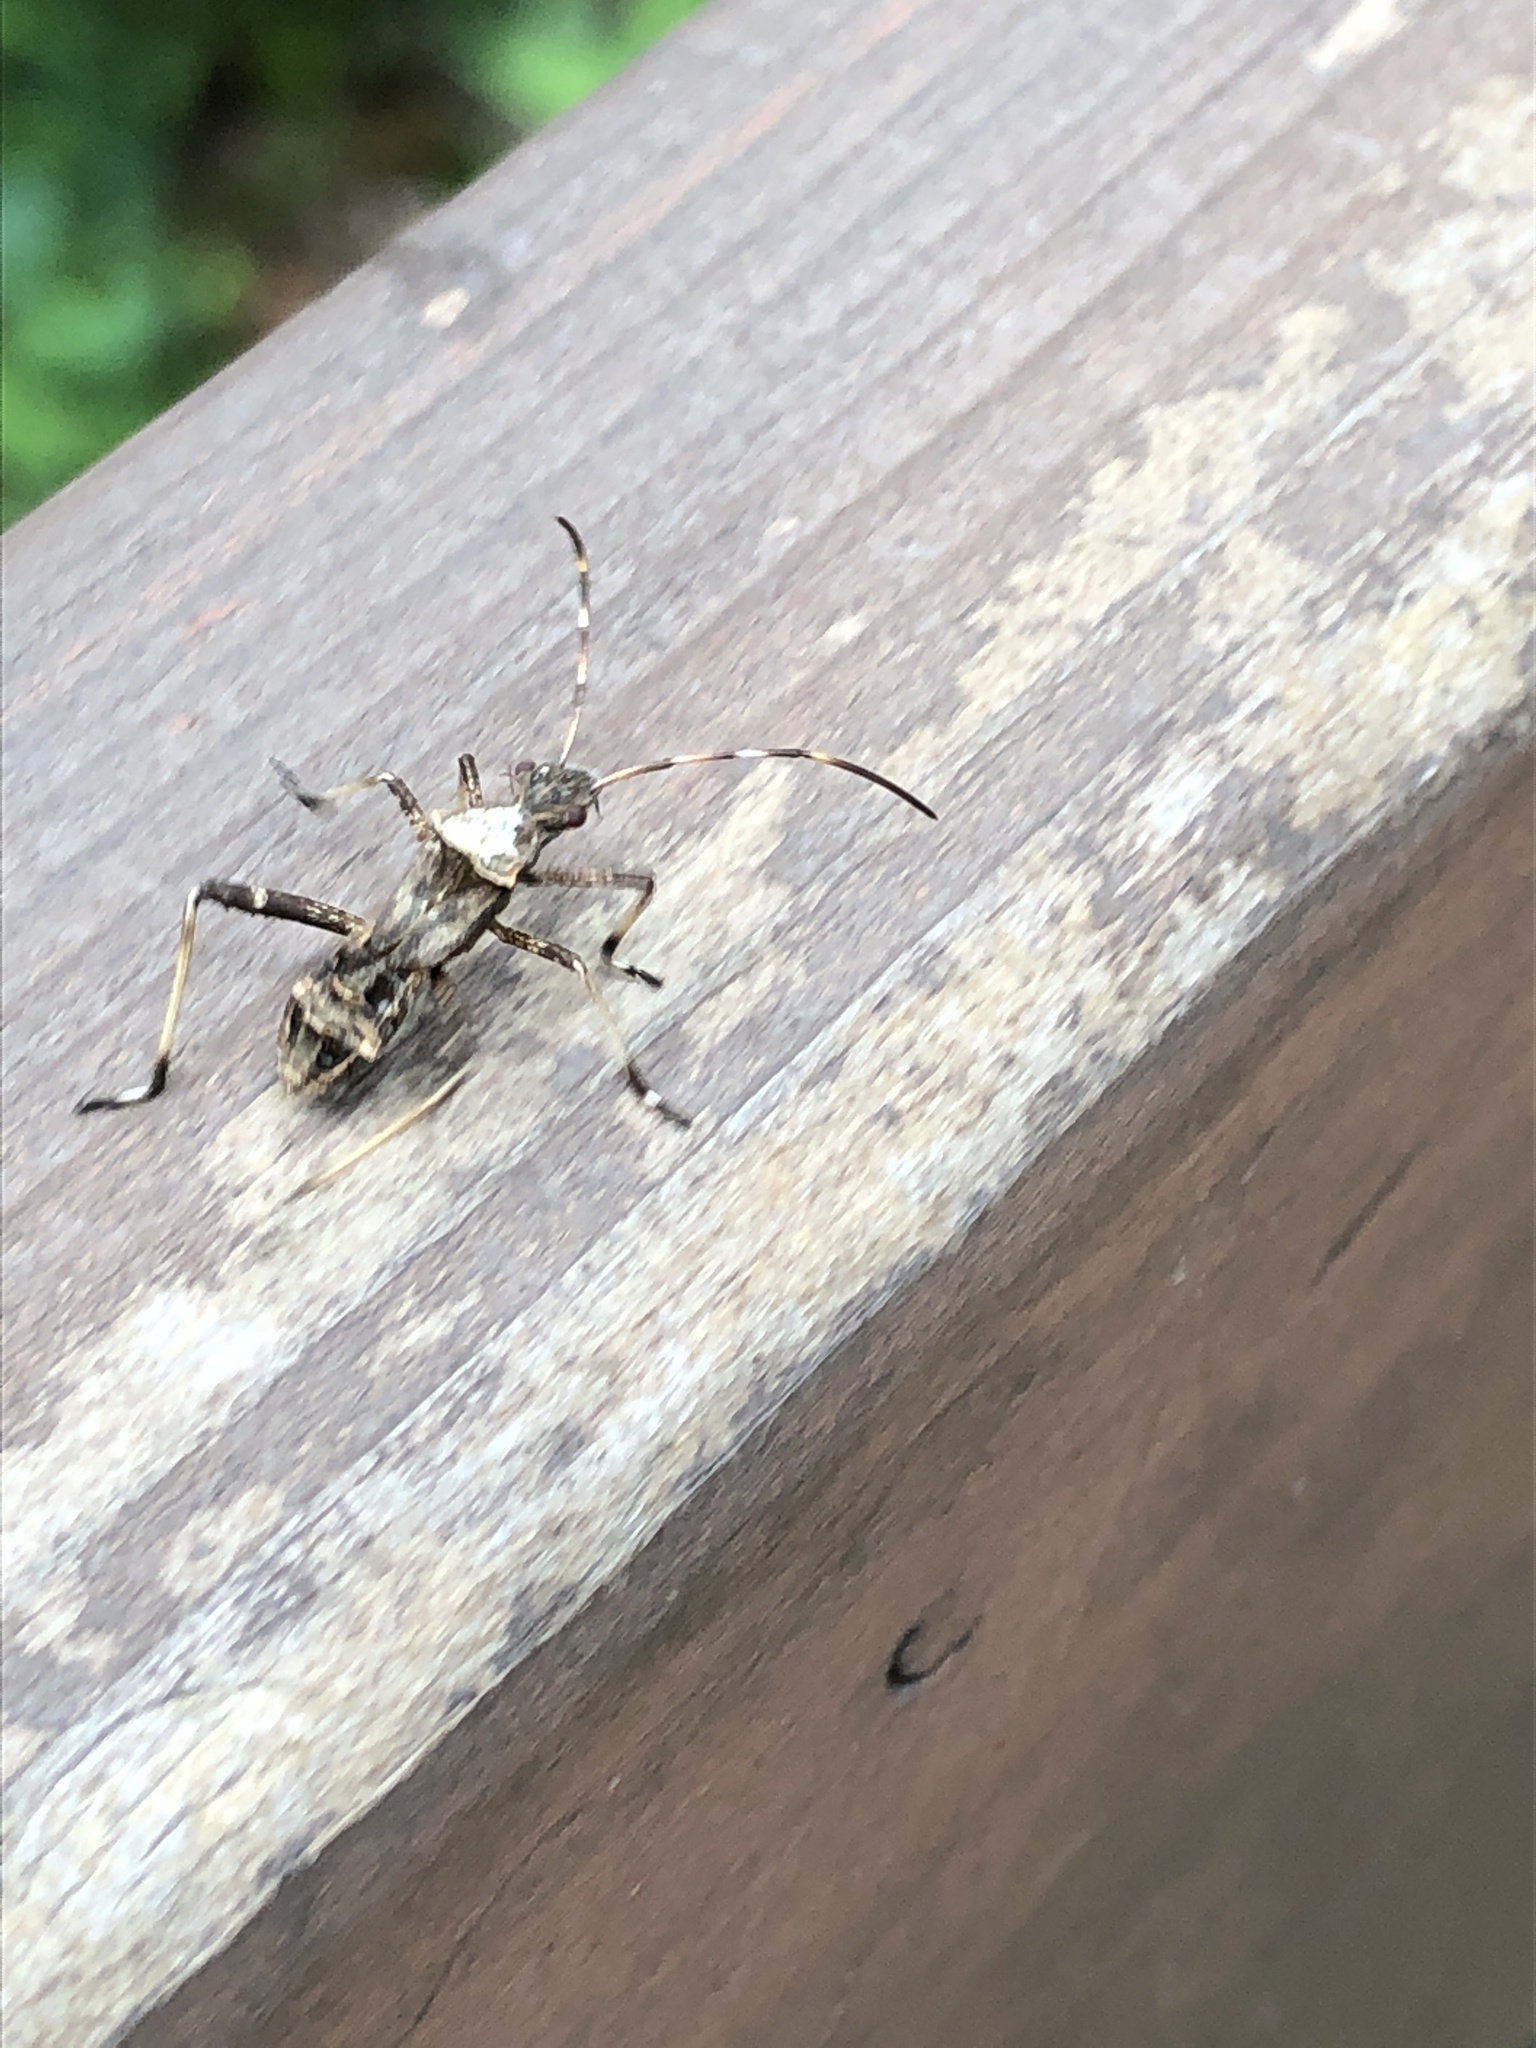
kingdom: Animalia
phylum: Arthropoda
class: Insecta
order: Hemiptera
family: Alydidae
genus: Riptortus
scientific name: Riptortus pedestris
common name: Bean bug
